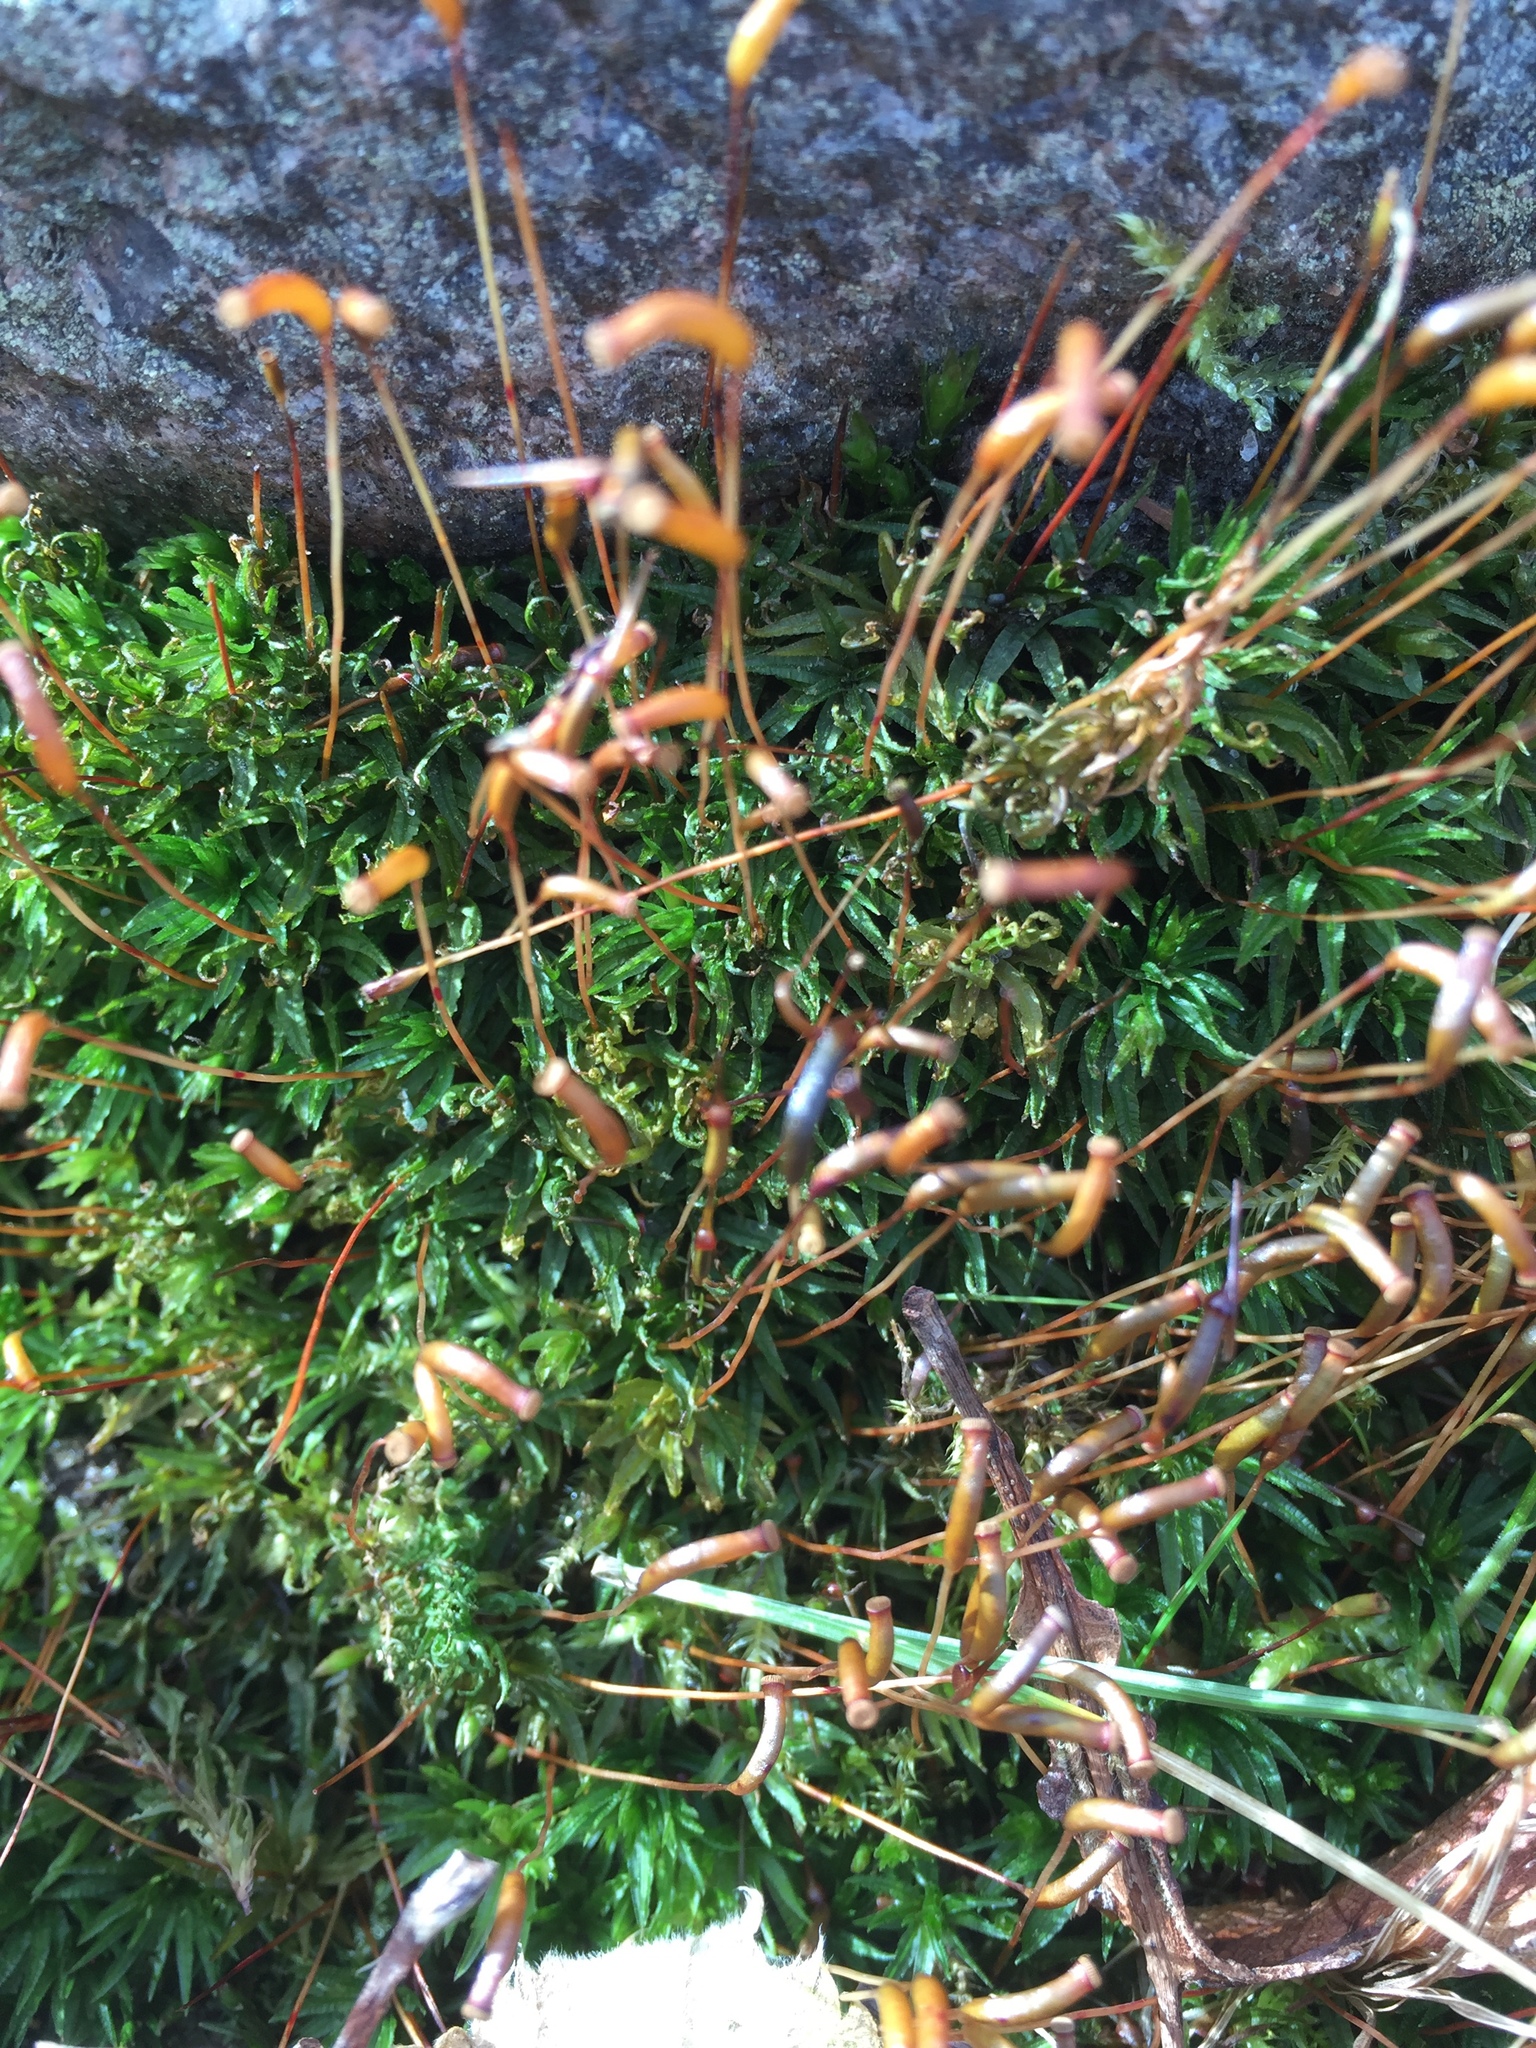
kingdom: Plantae
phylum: Bryophyta
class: Polytrichopsida
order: Polytrichales
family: Polytrichaceae
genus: Atrichum
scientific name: Atrichum undulatum
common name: Common smoothcap
